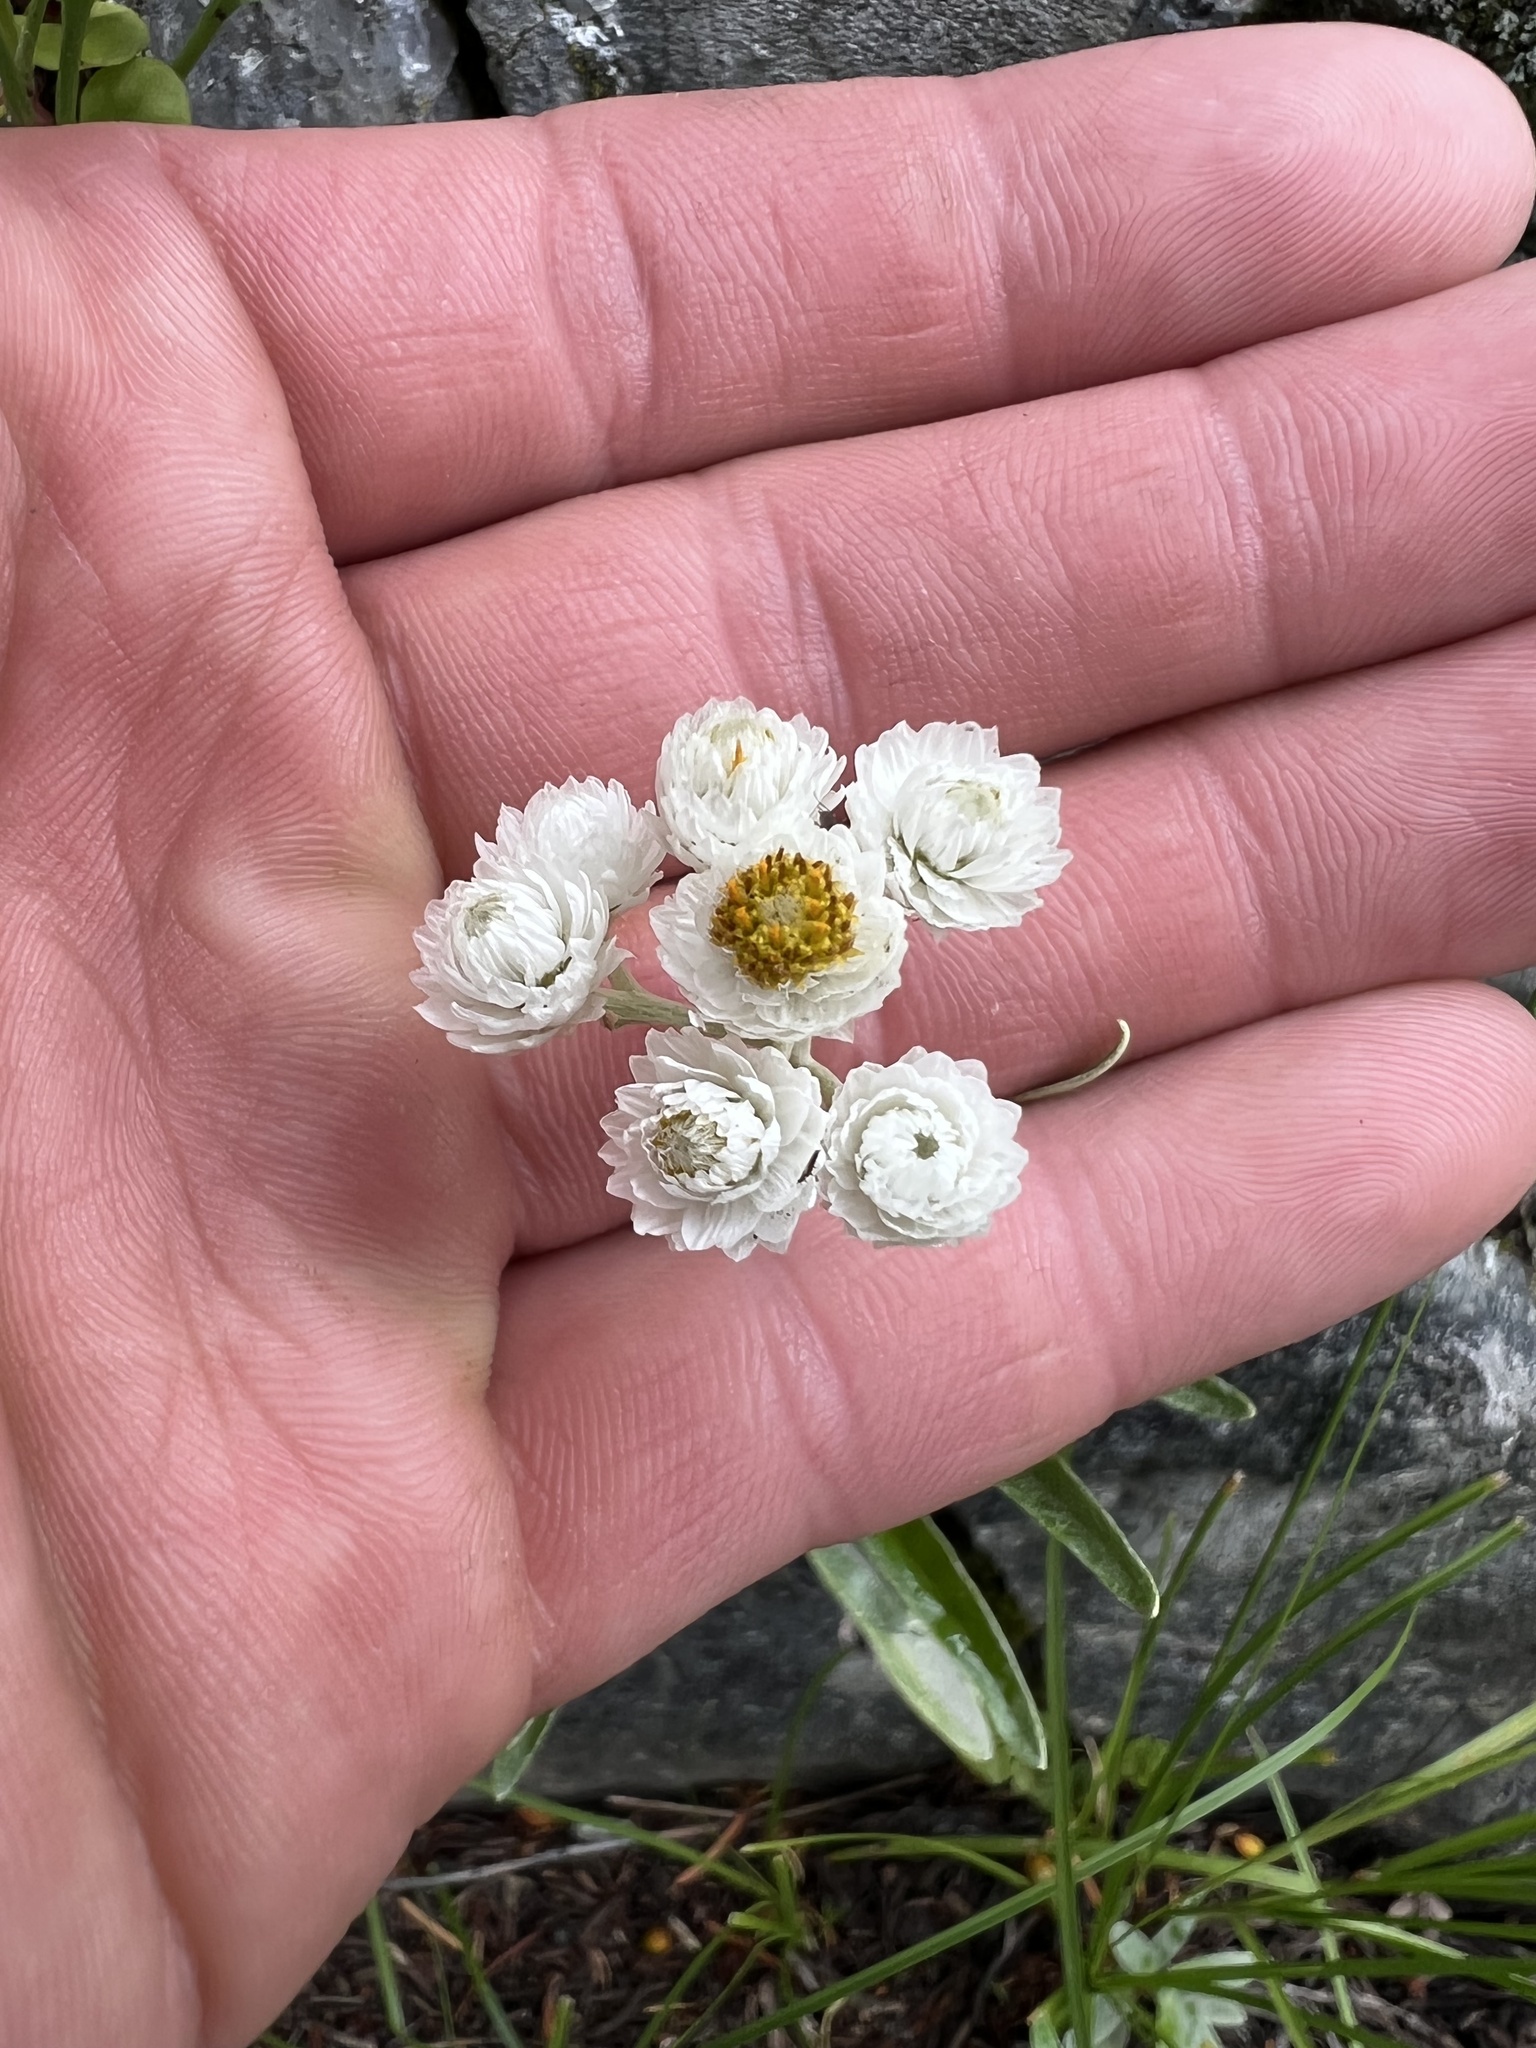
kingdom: Plantae
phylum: Tracheophyta
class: Magnoliopsida
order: Asterales
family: Asteraceae
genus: Anaphalis
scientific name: Anaphalis margaritacea
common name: Pearly everlasting
